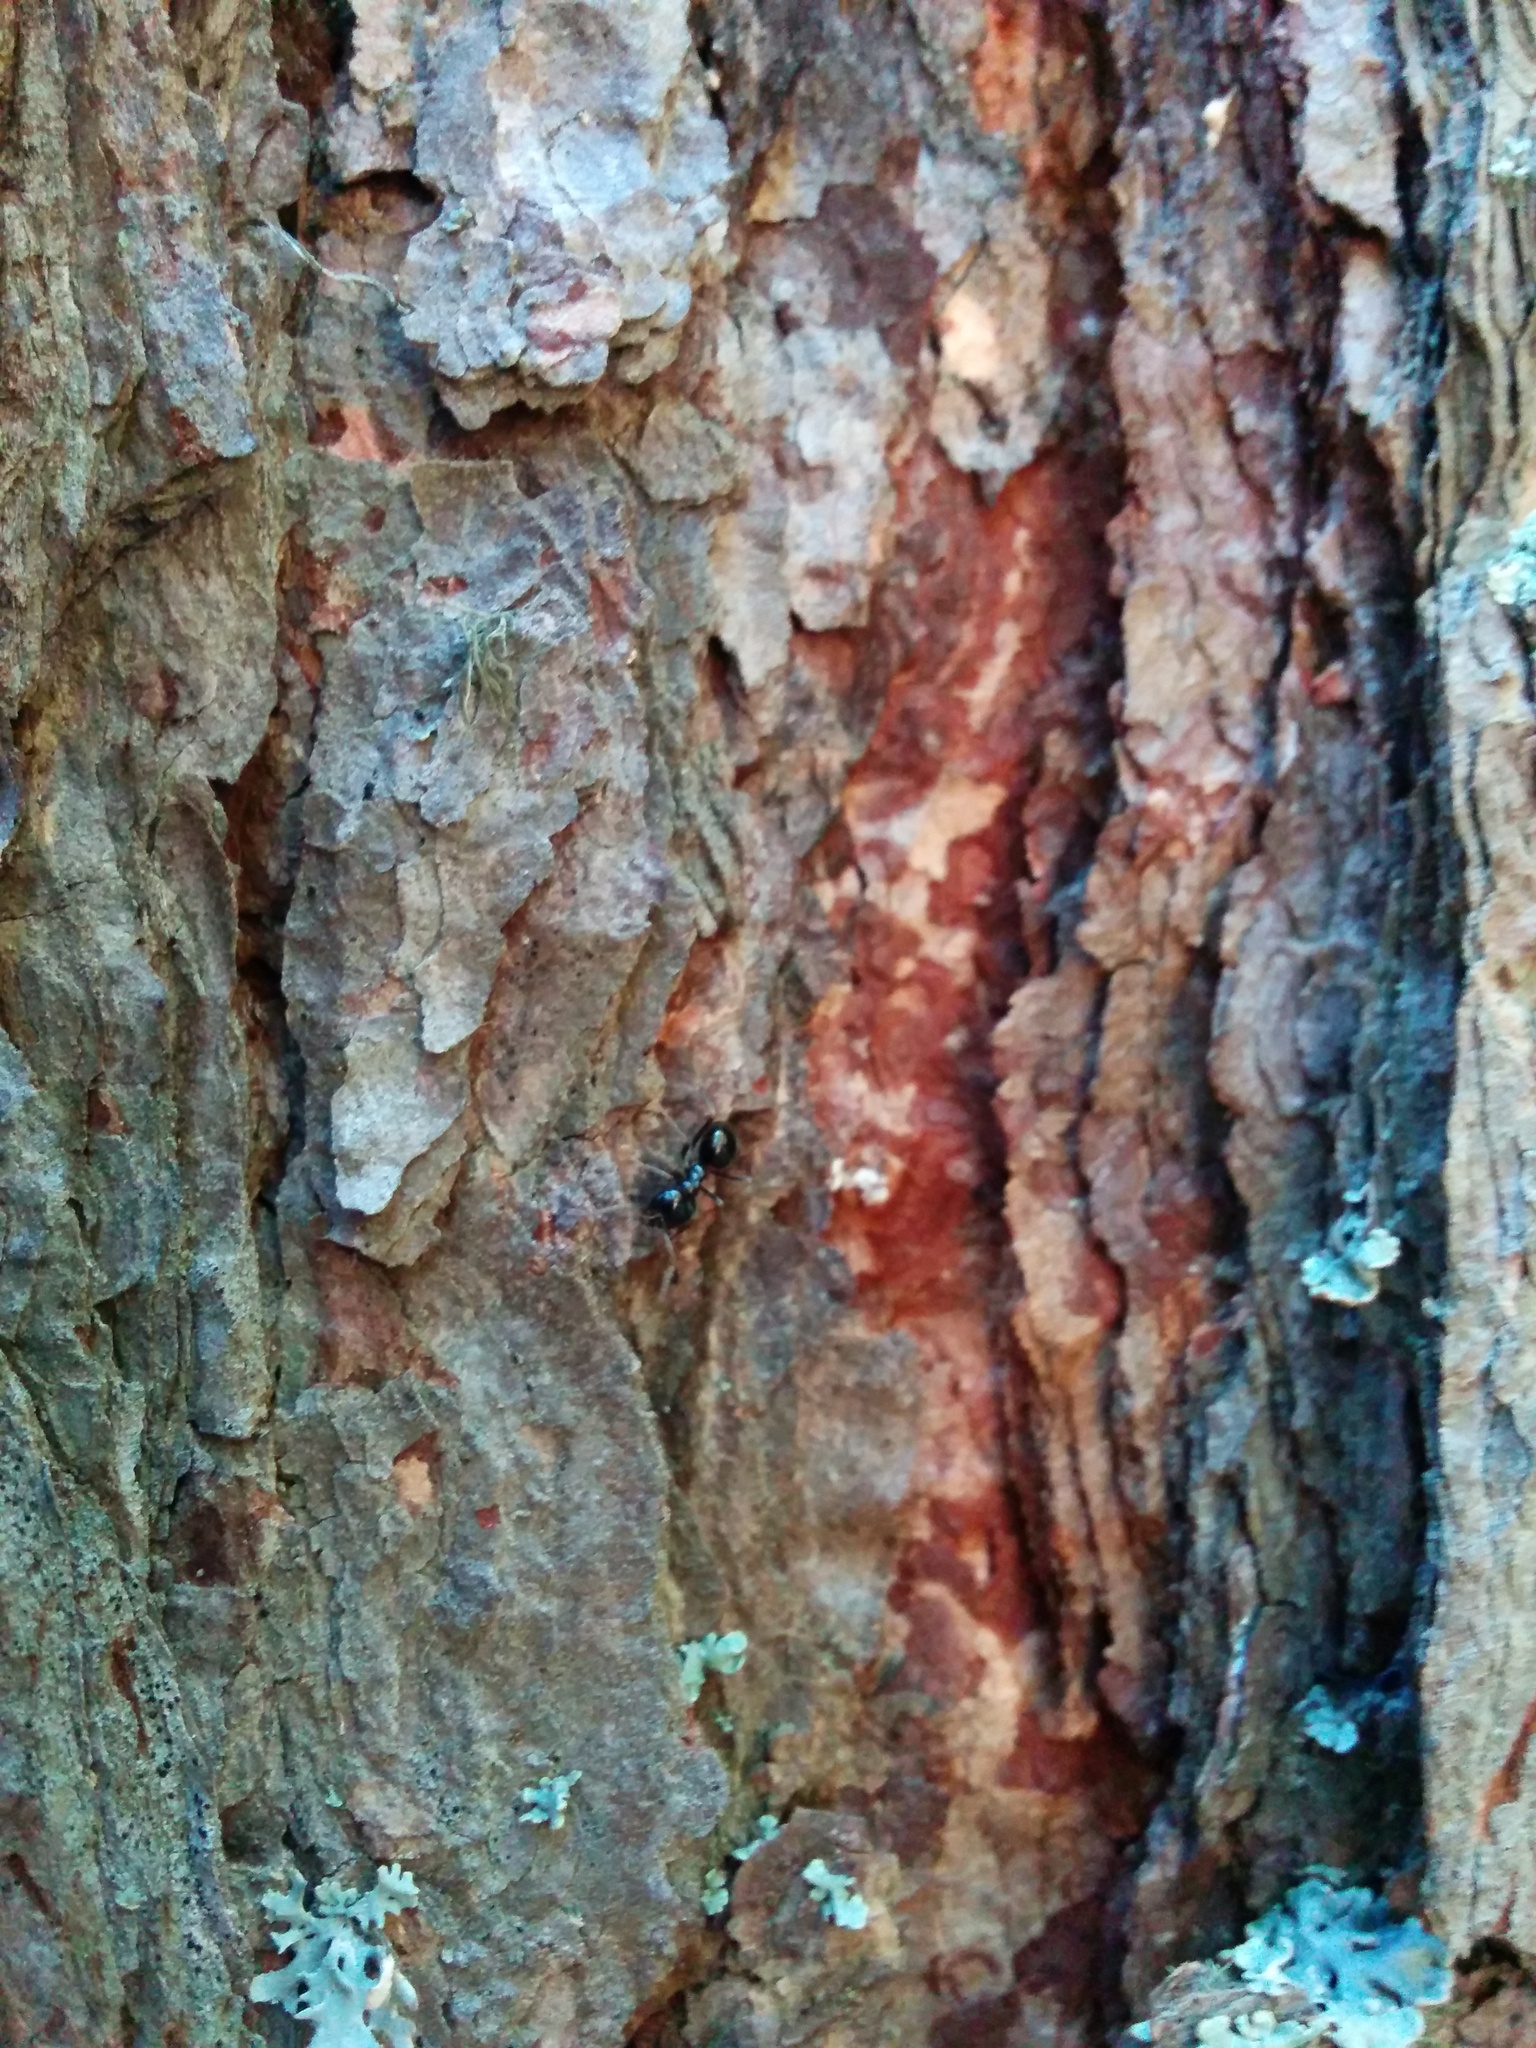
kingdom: Animalia
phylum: Arthropoda
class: Insecta
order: Hymenoptera
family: Formicidae
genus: Lasius
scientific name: Lasius fuliginosus
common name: Jet ant
